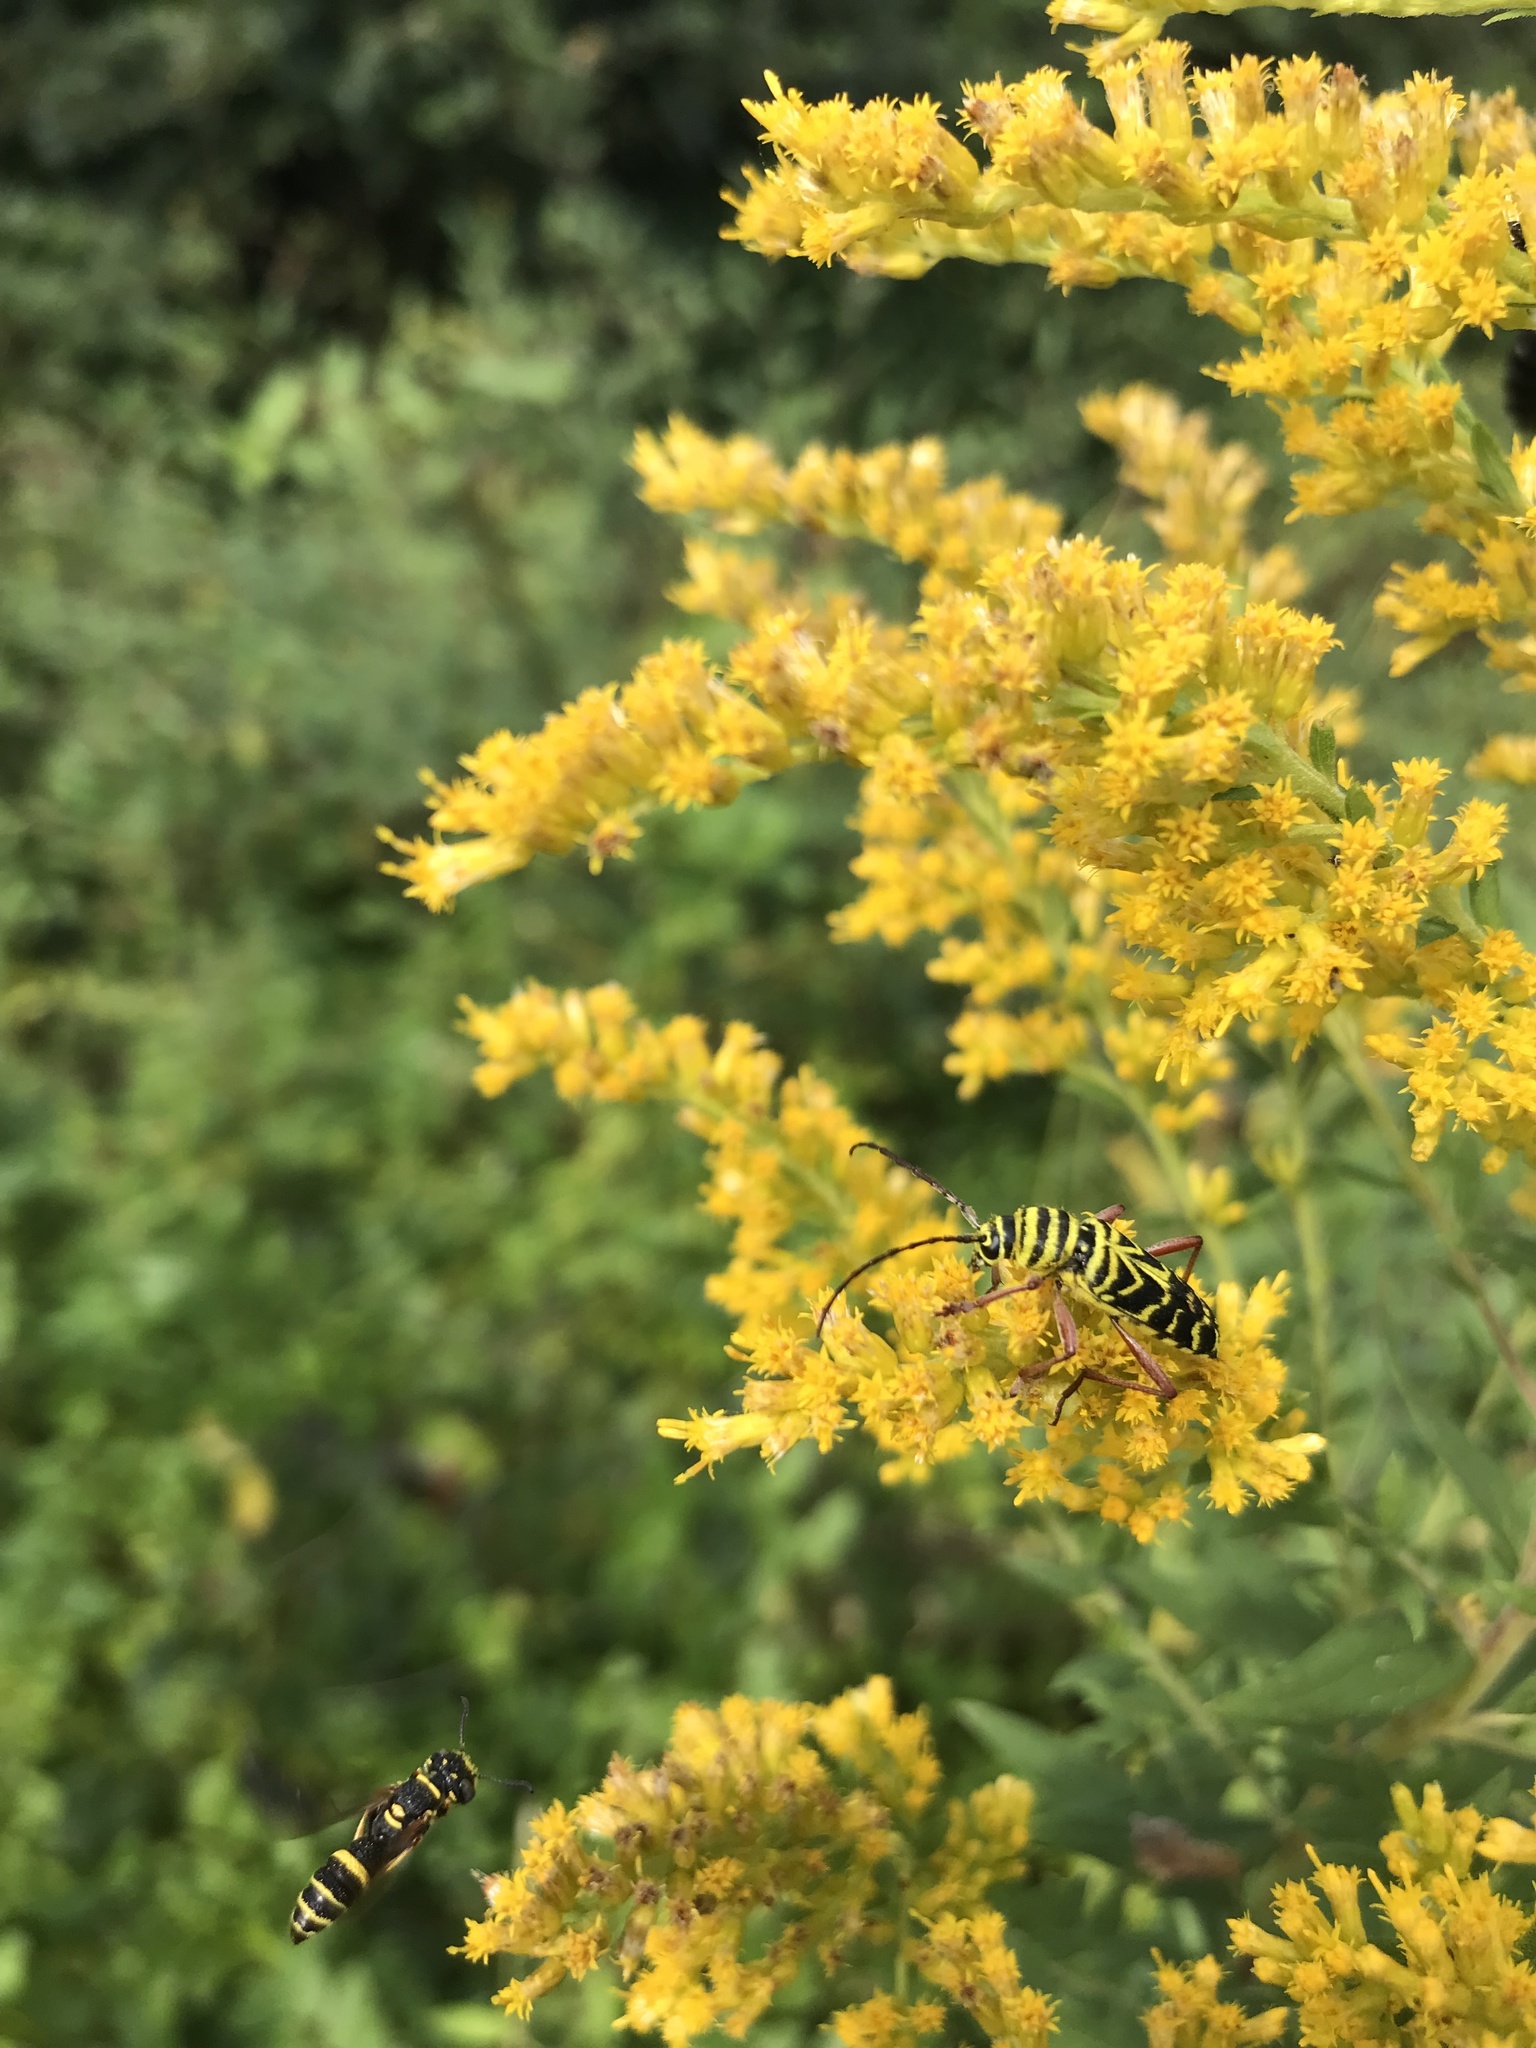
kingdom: Animalia
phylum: Arthropoda
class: Insecta
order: Coleoptera
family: Cerambycidae
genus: Megacyllene
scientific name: Megacyllene robiniae
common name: Locust borer
